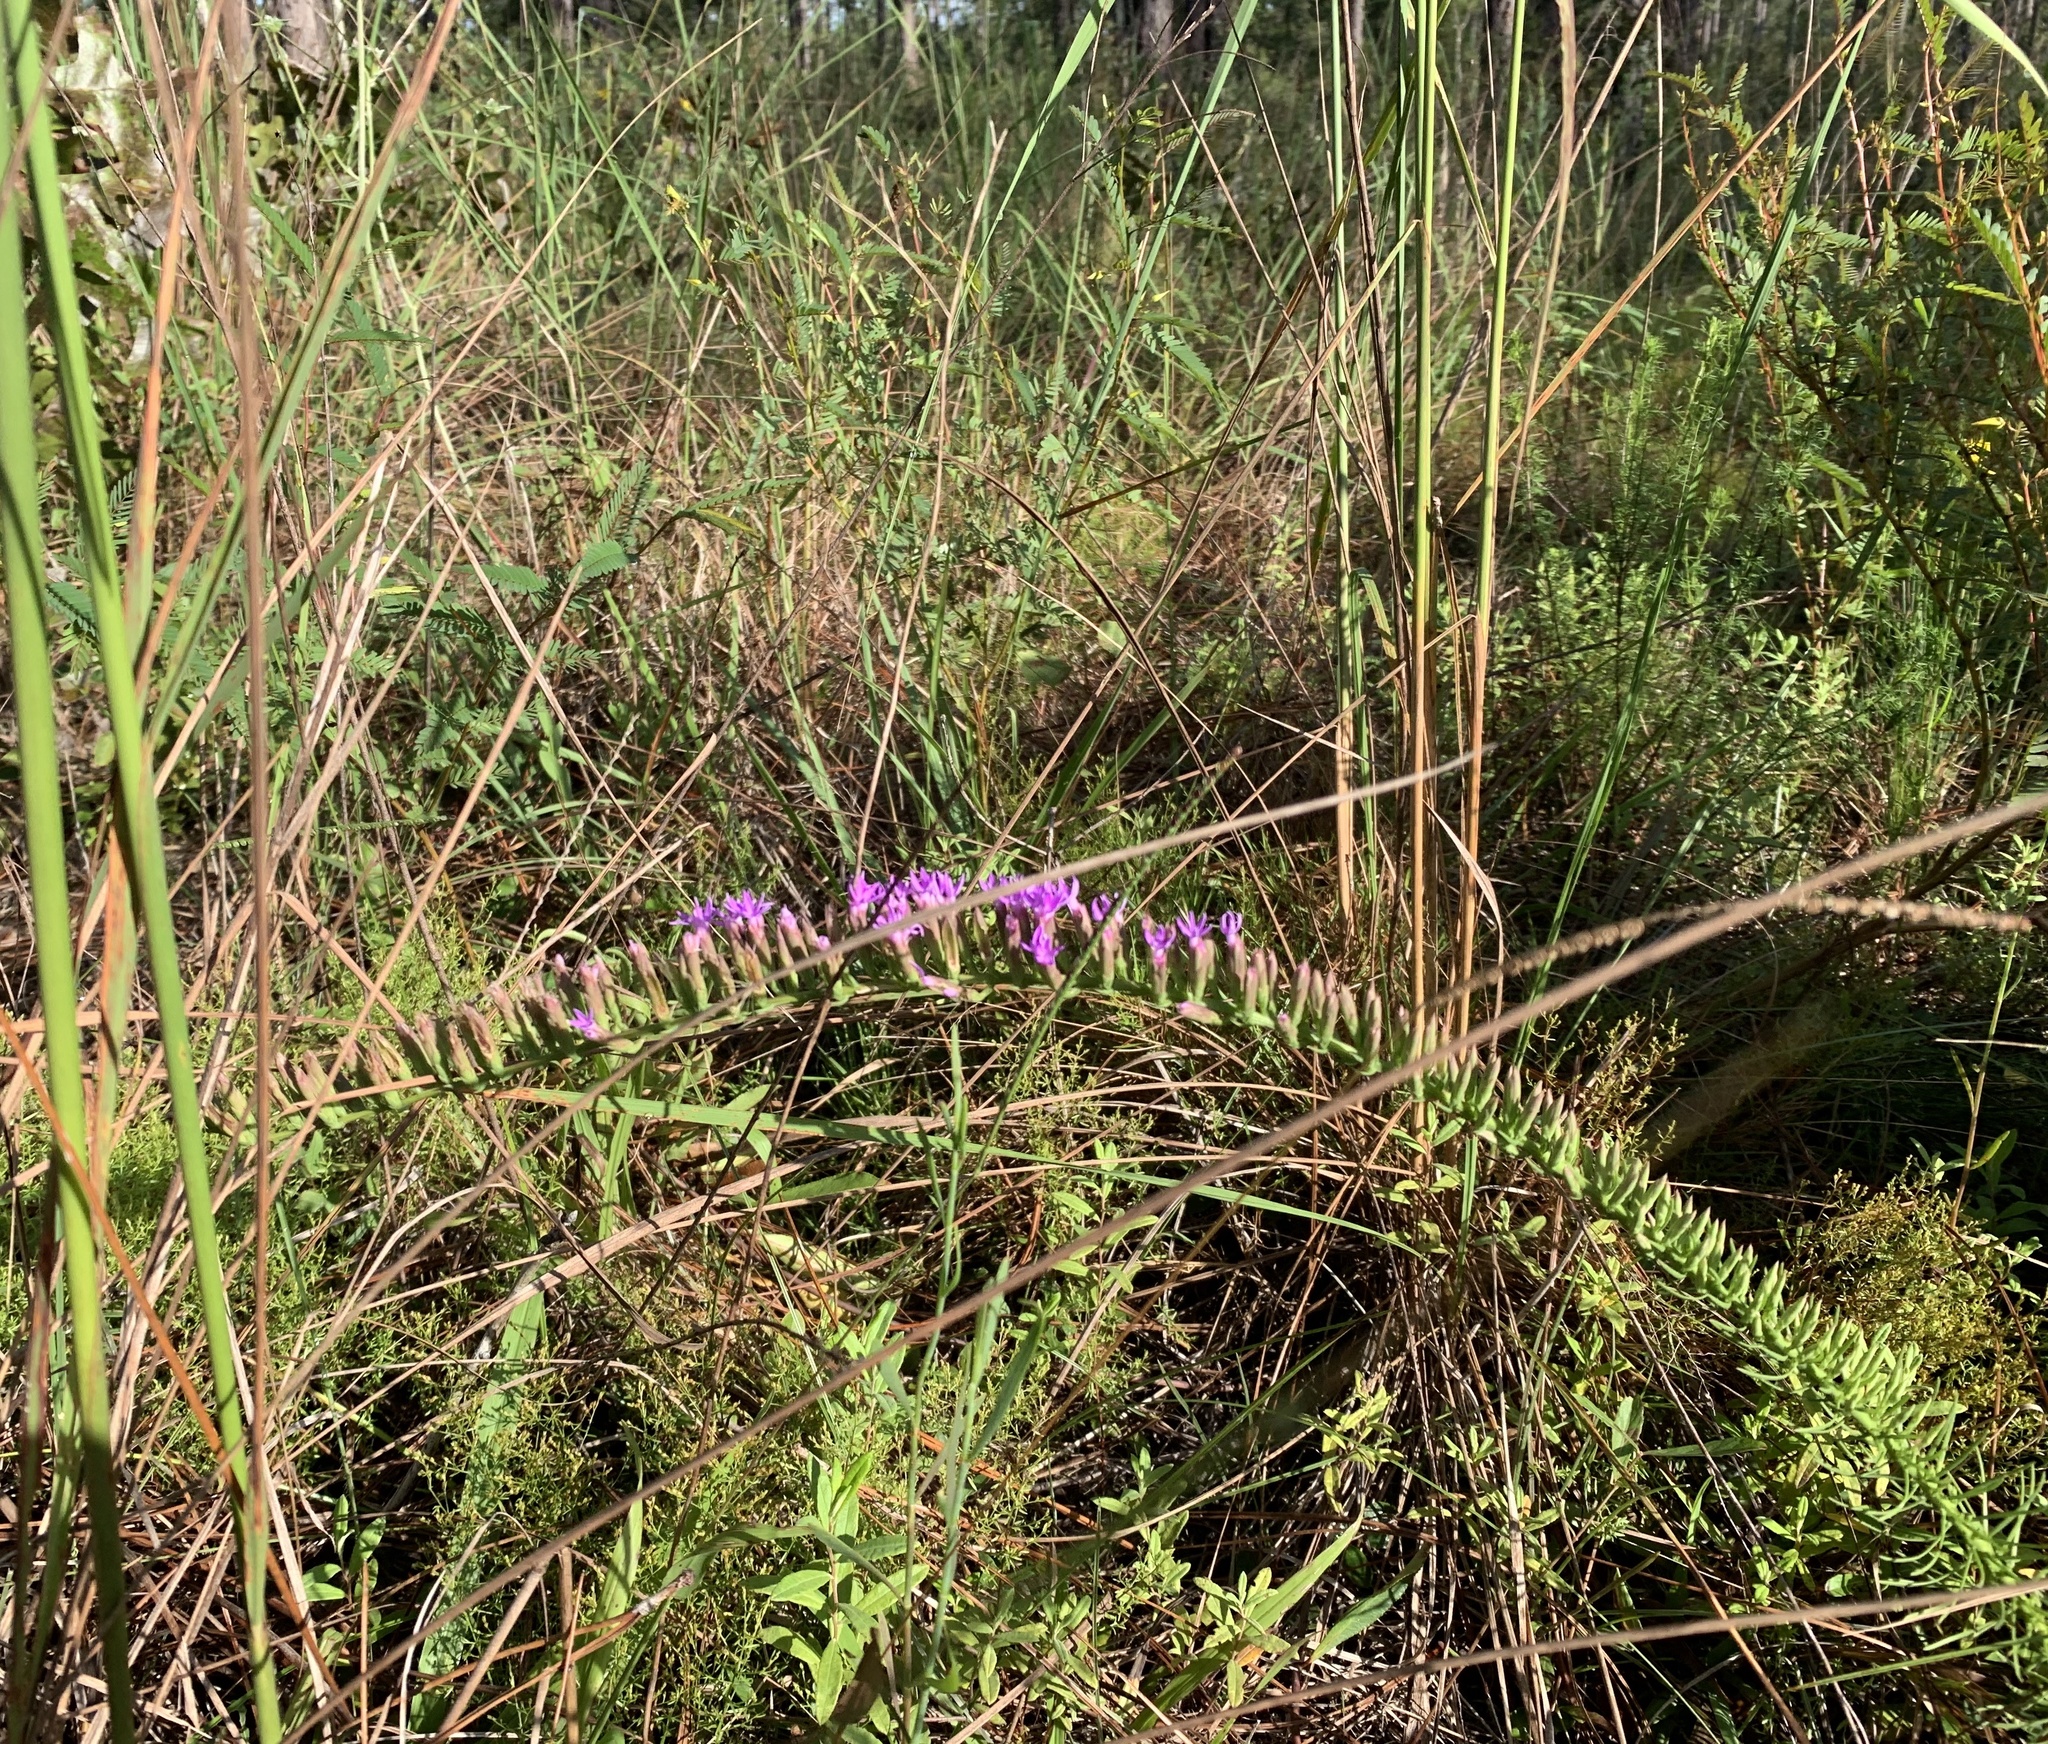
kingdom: Plantae
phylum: Tracheophyta
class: Magnoliopsida
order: Asterales
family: Asteraceae
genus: Liatris
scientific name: Liatris pauciflora
